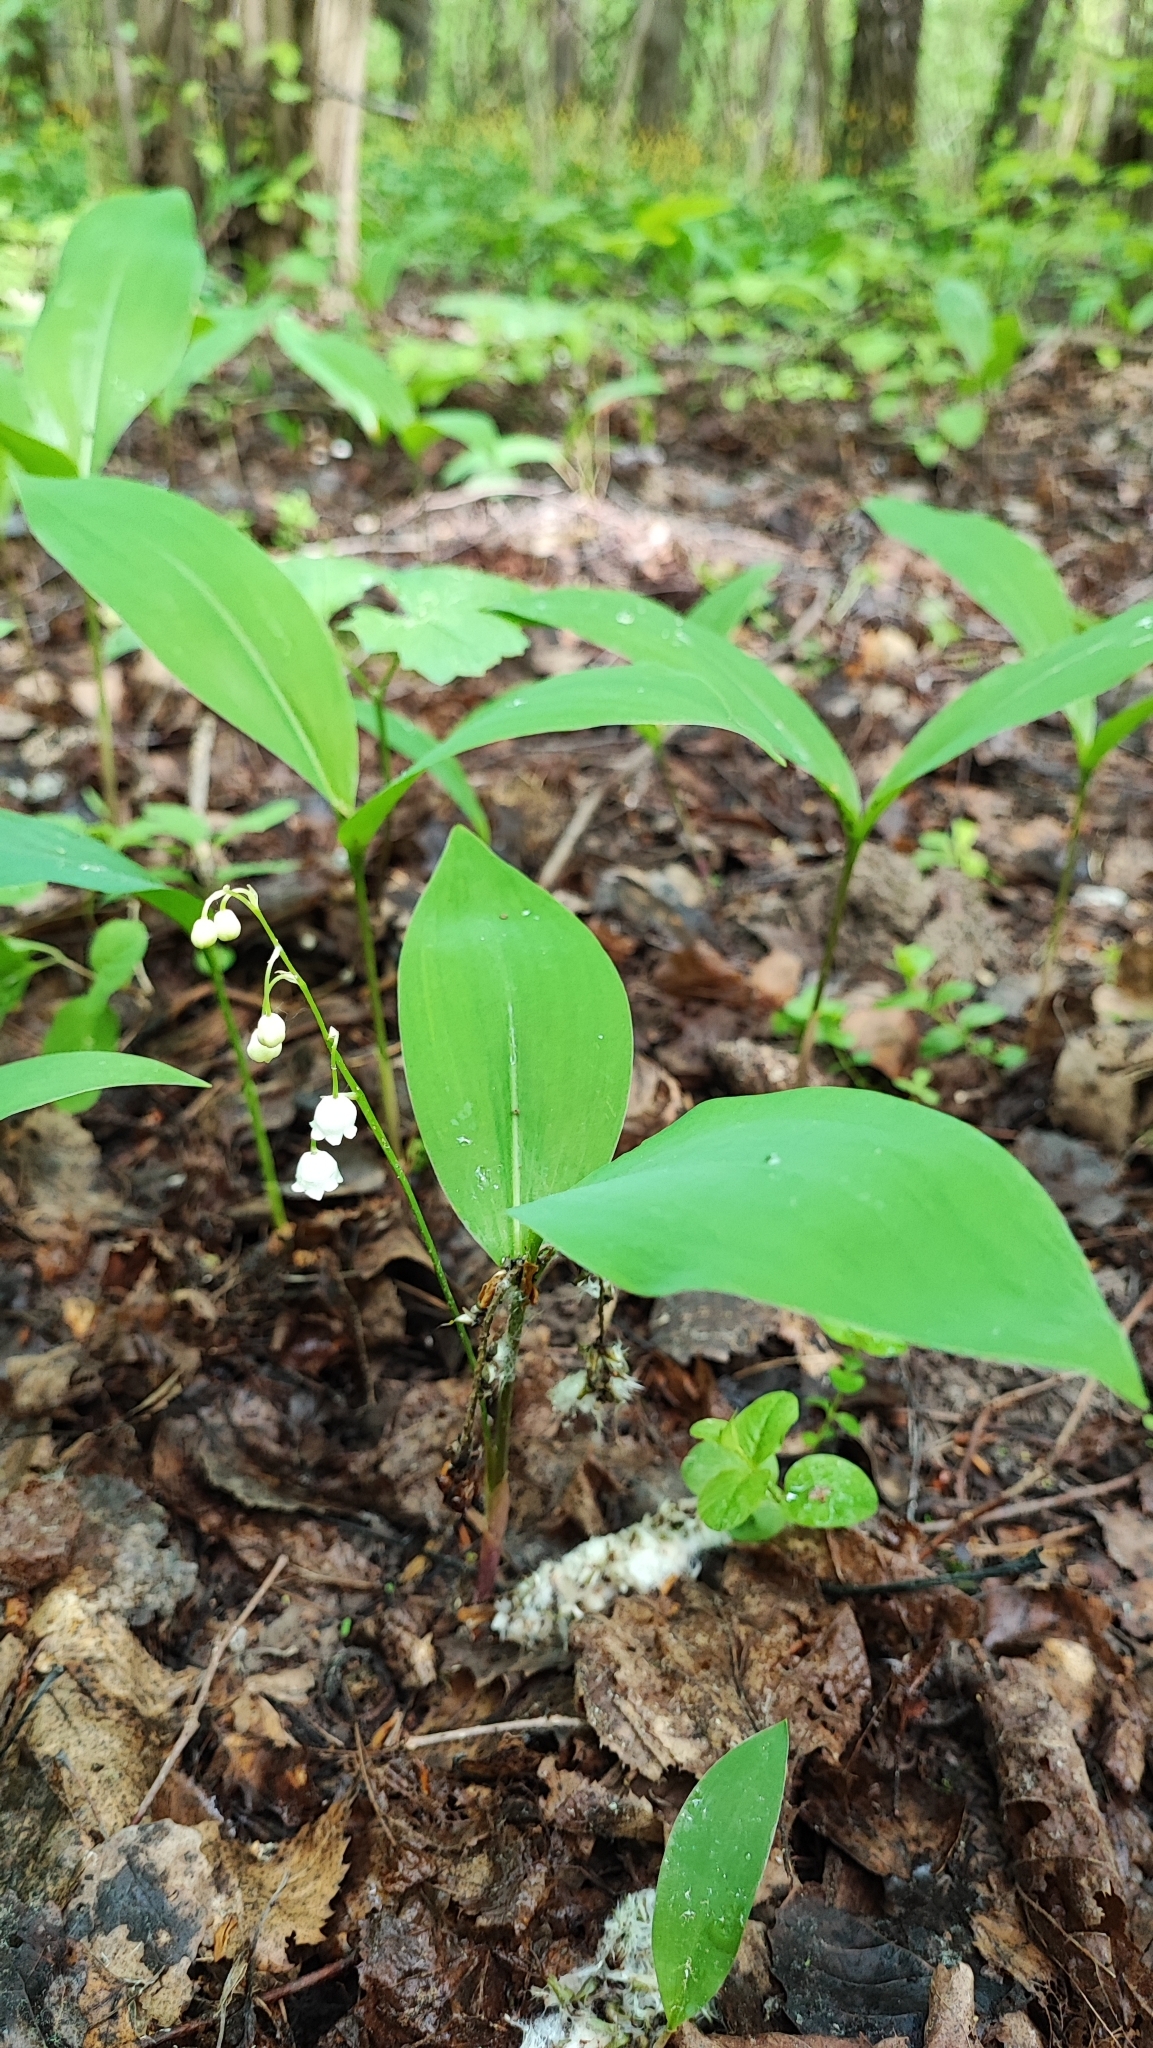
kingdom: Plantae
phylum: Tracheophyta
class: Liliopsida
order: Asparagales
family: Asparagaceae
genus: Convallaria
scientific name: Convallaria majalis
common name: Lily-of-the-valley
